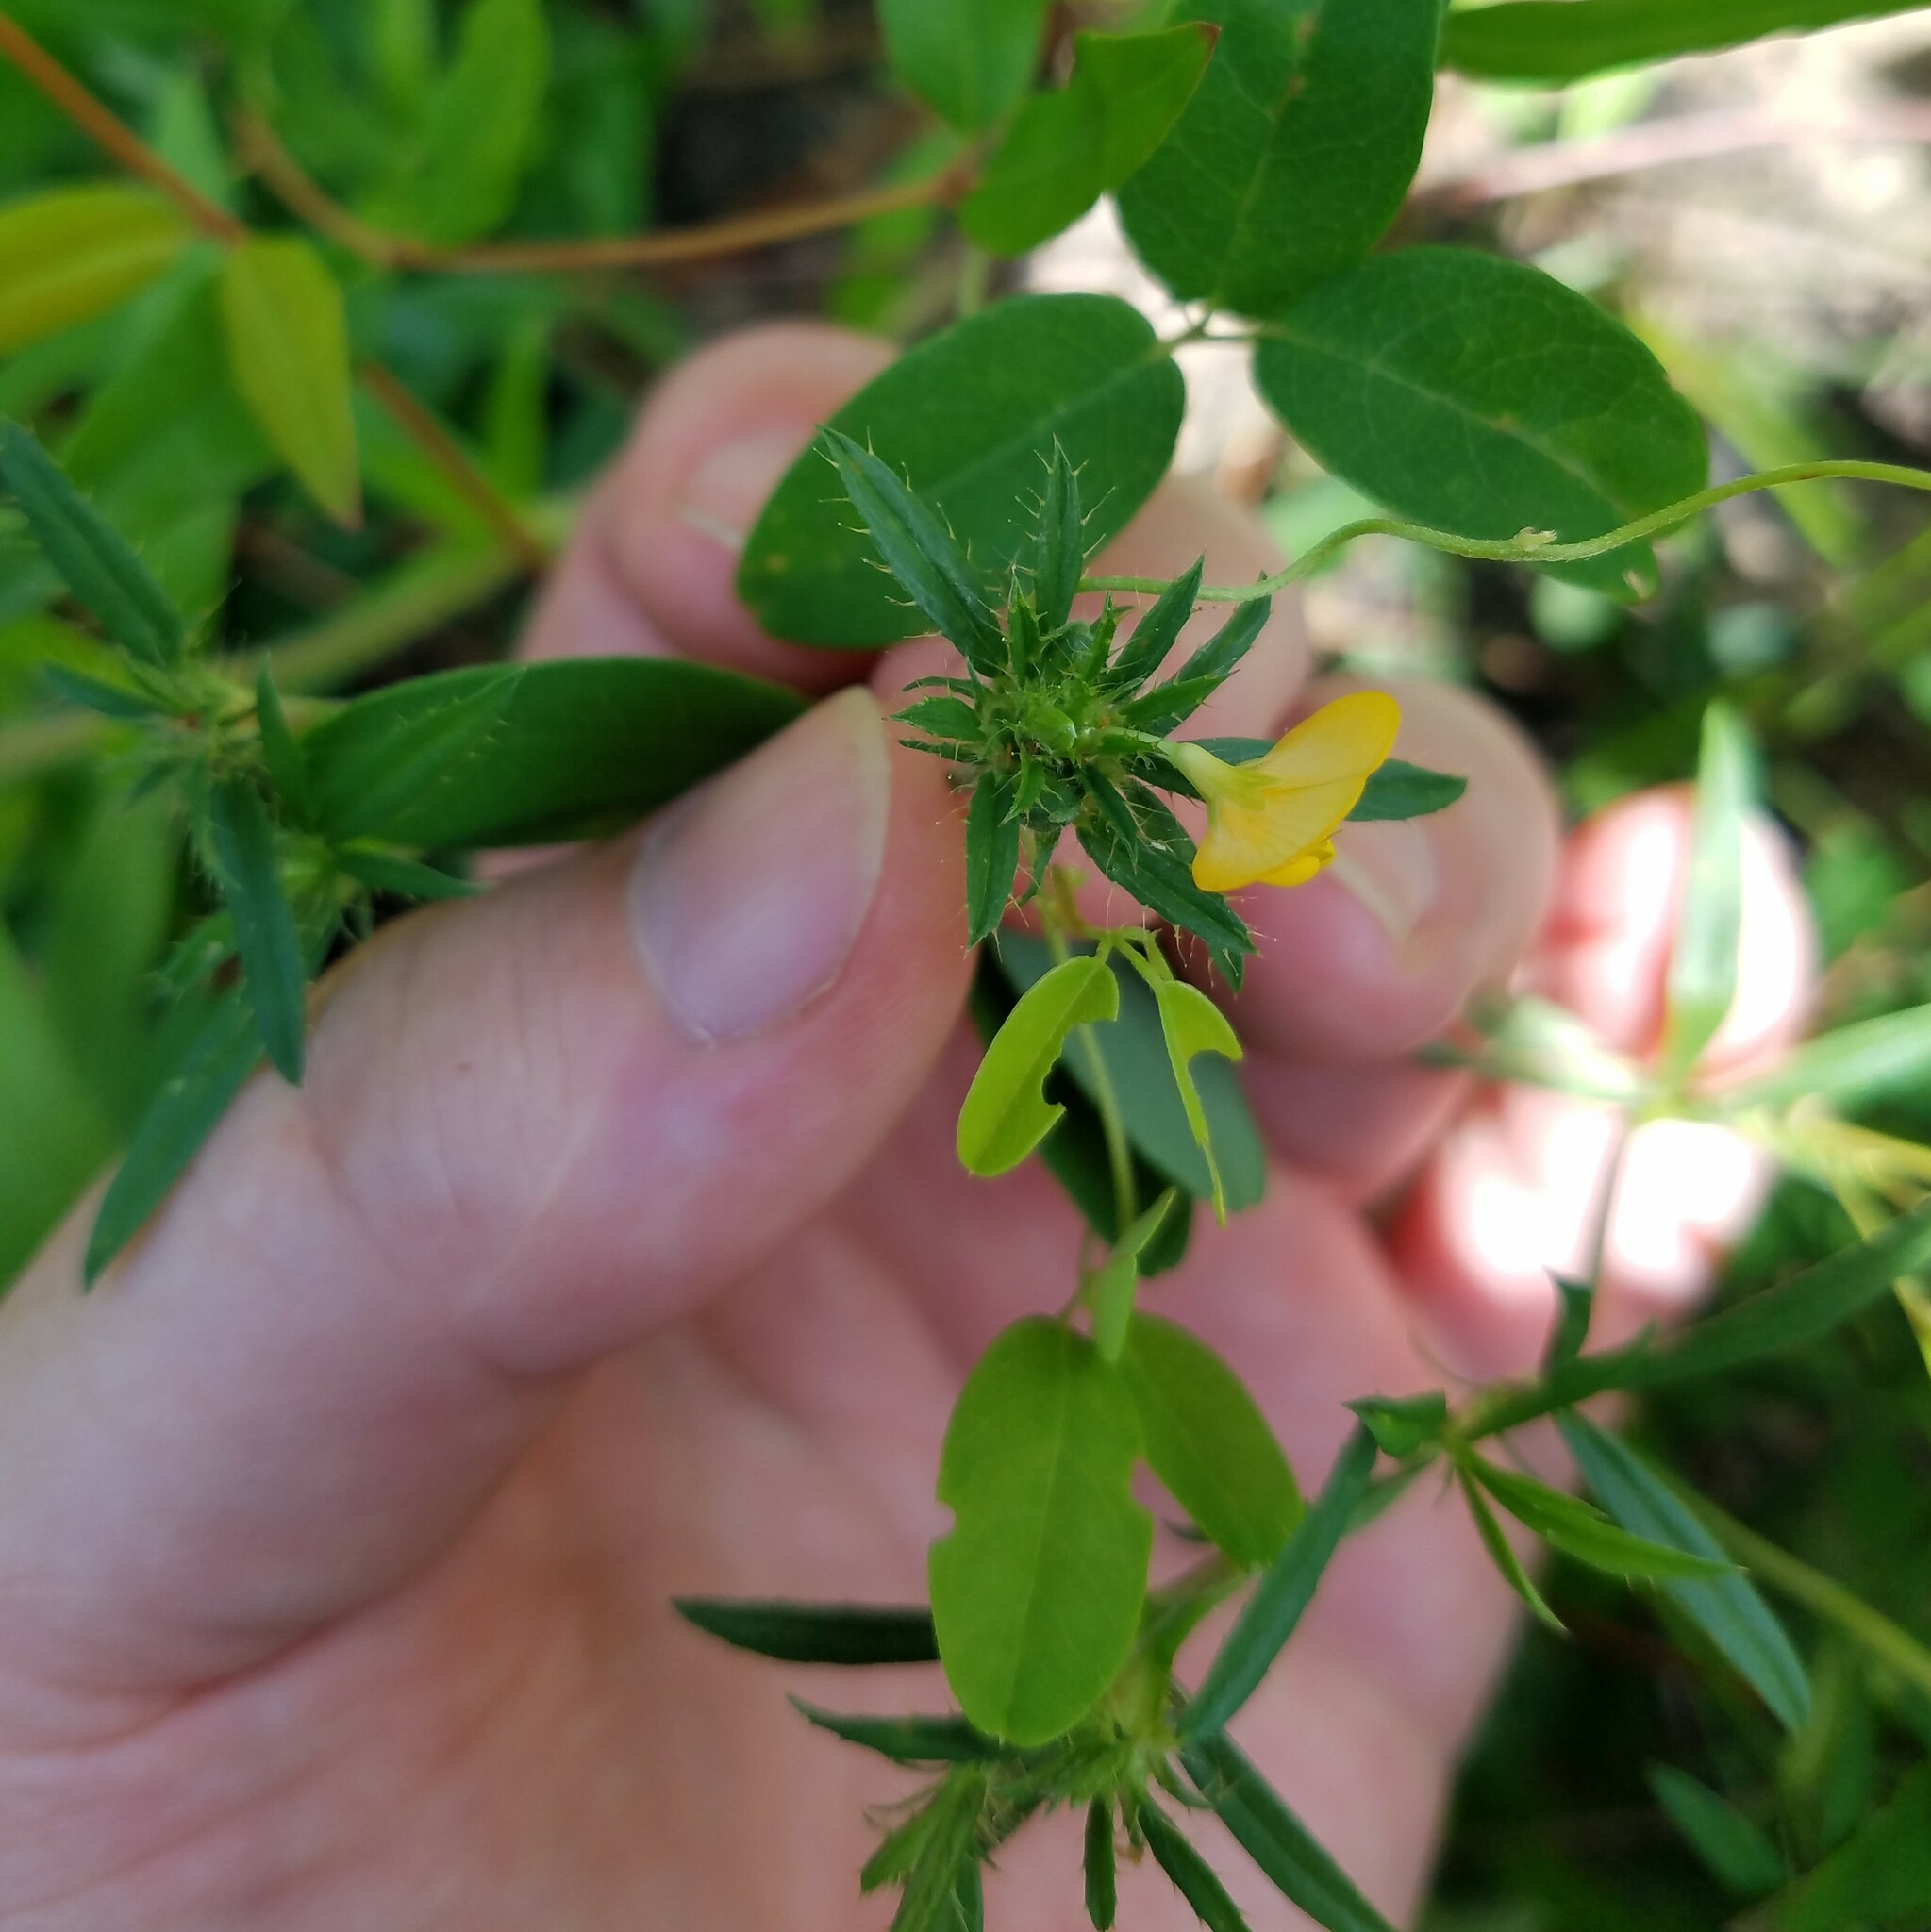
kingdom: Plantae
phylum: Tracheophyta
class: Magnoliopsida
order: Fabales
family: Fabaceae
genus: Stylosanthes
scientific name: Stylosanthes biflora
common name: Two-flower pencil-flower
